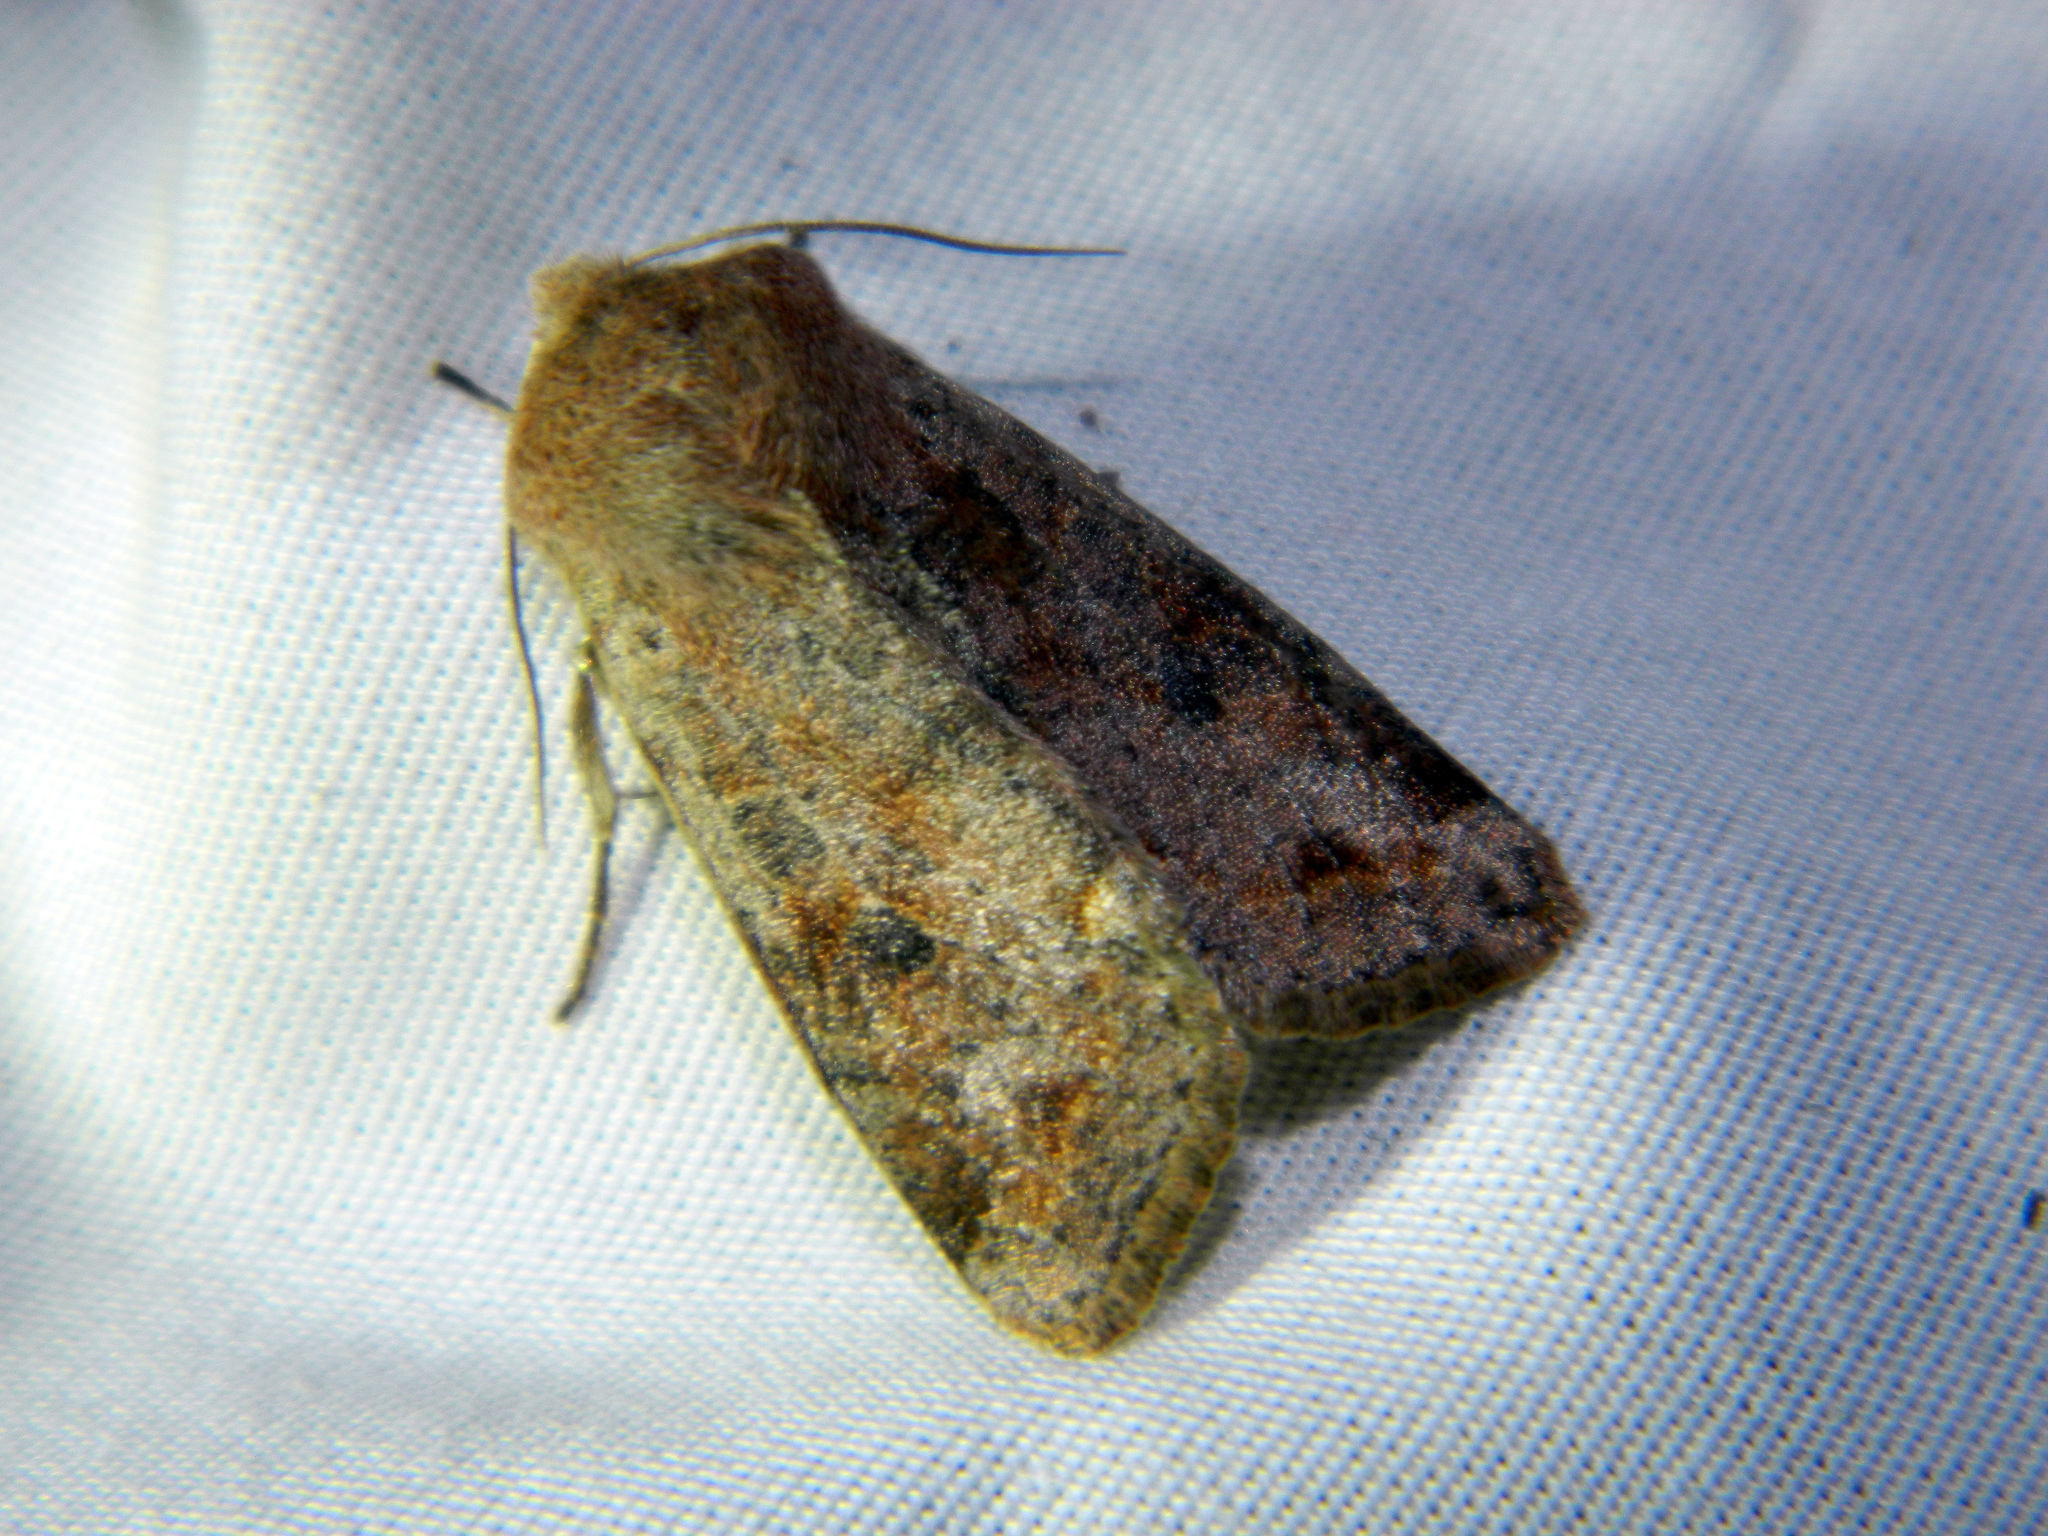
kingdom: Animalia
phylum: Arthropoda
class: Insecta
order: Lepidoptera
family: Noctuidae
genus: Orthosia
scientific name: Orthosia hibisci
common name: Green fruitworm
